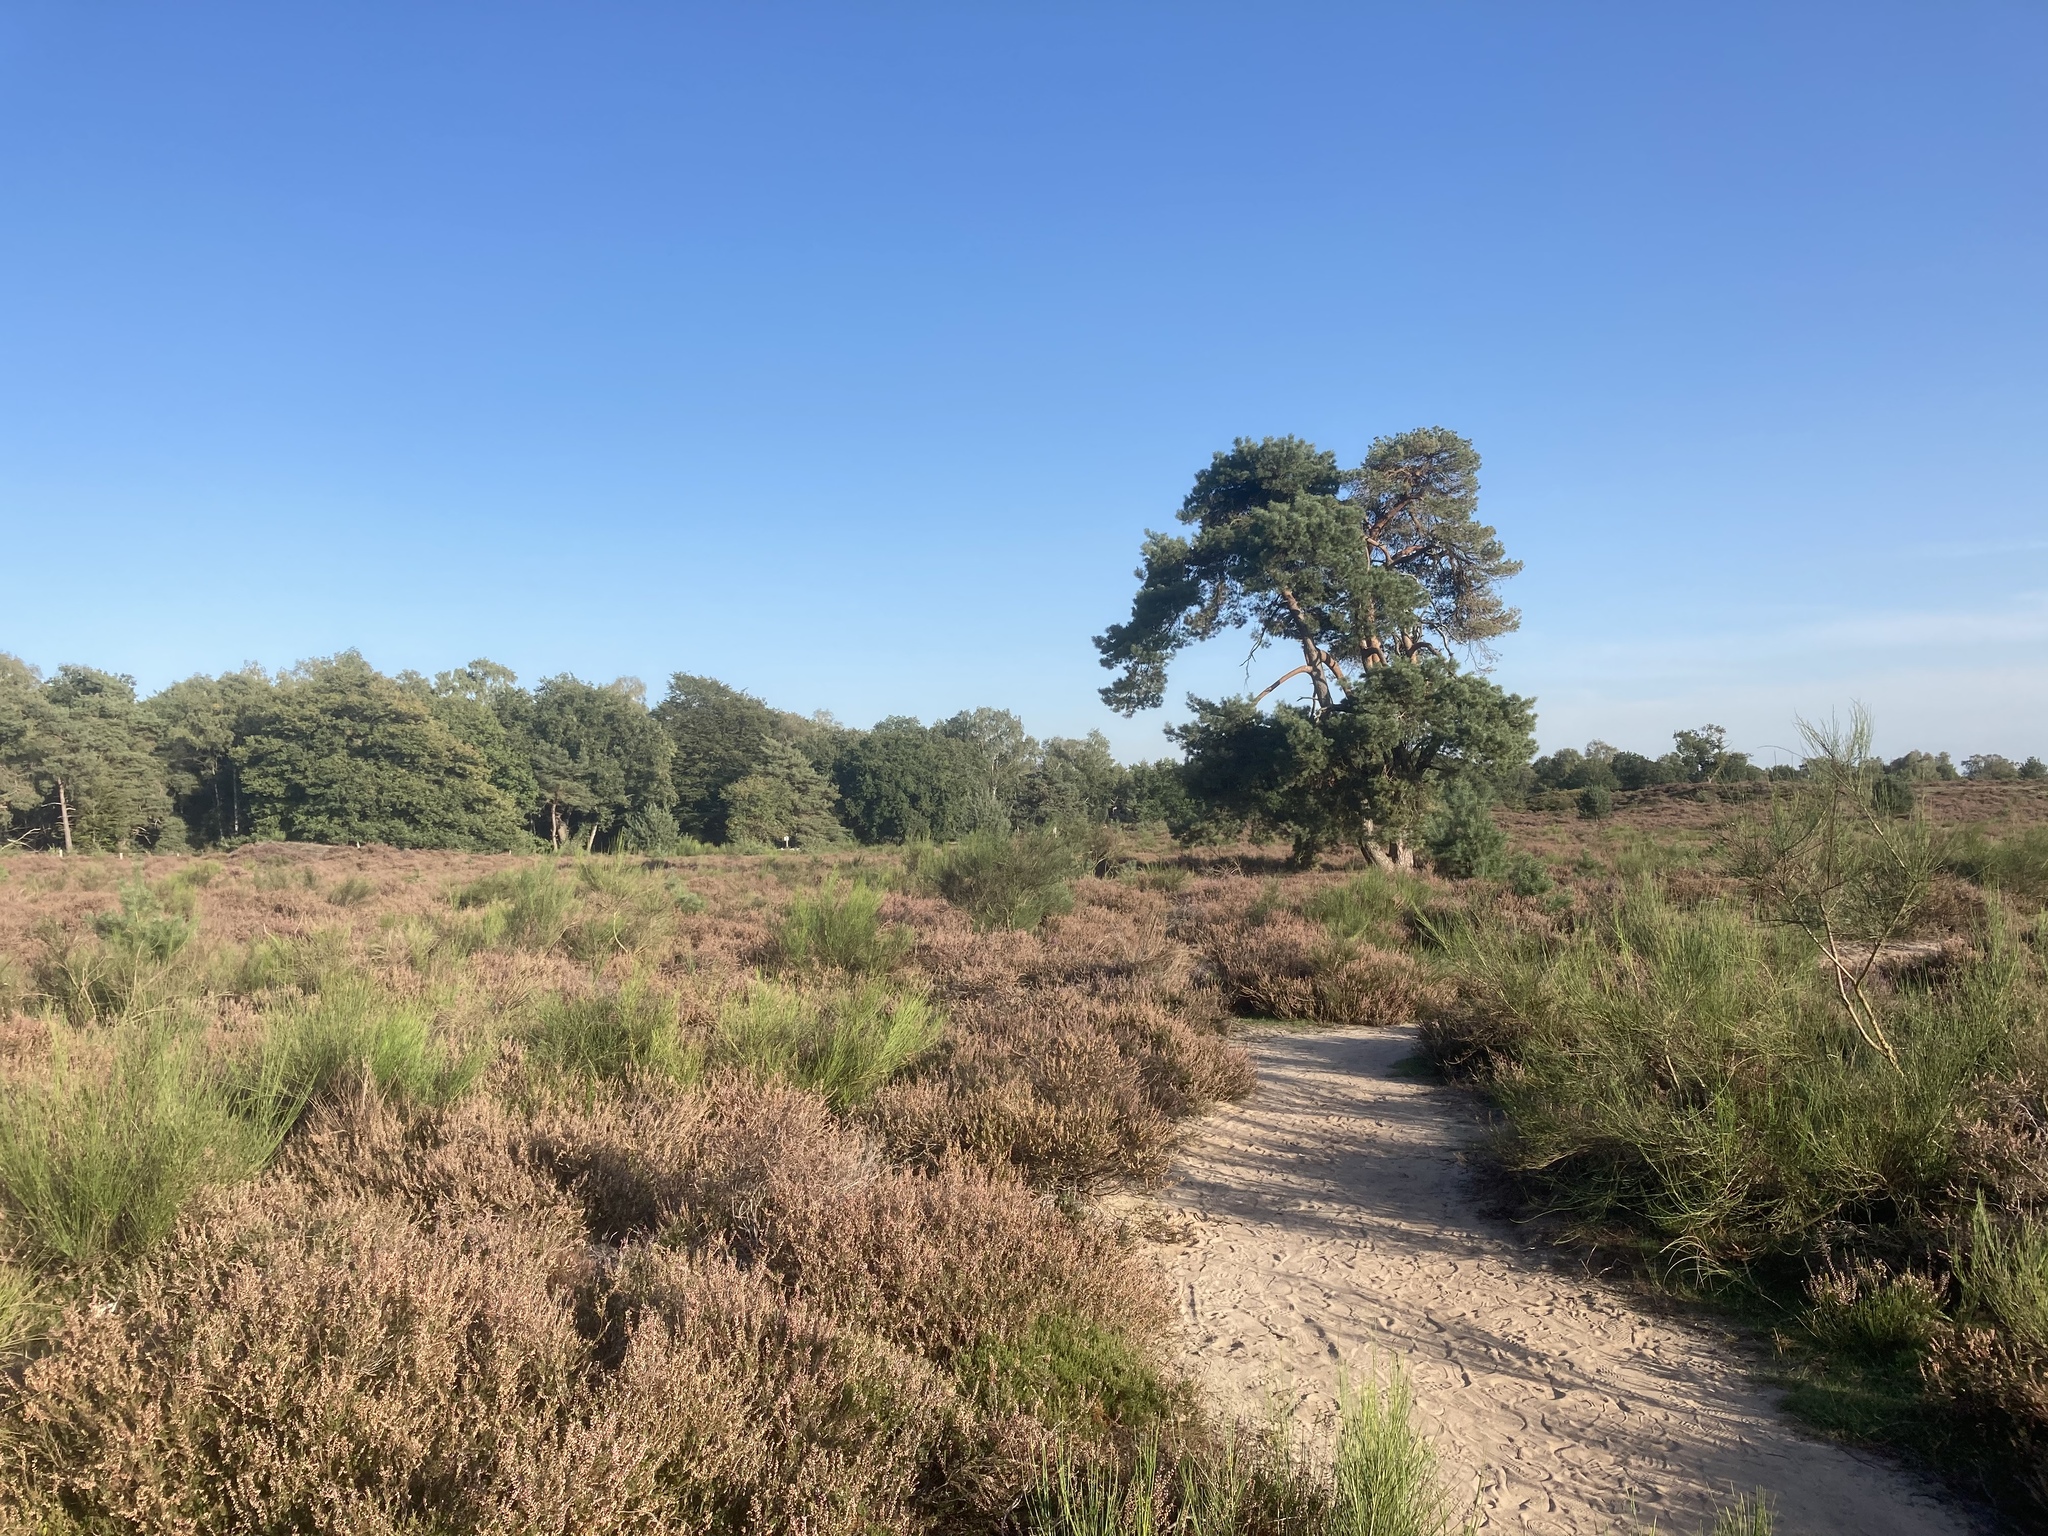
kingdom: Plantae
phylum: Tracheophyta
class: Pinopsida
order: Pinales
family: Pinaceae
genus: Pinus
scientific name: Pinus sylvestris
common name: Scots pine
